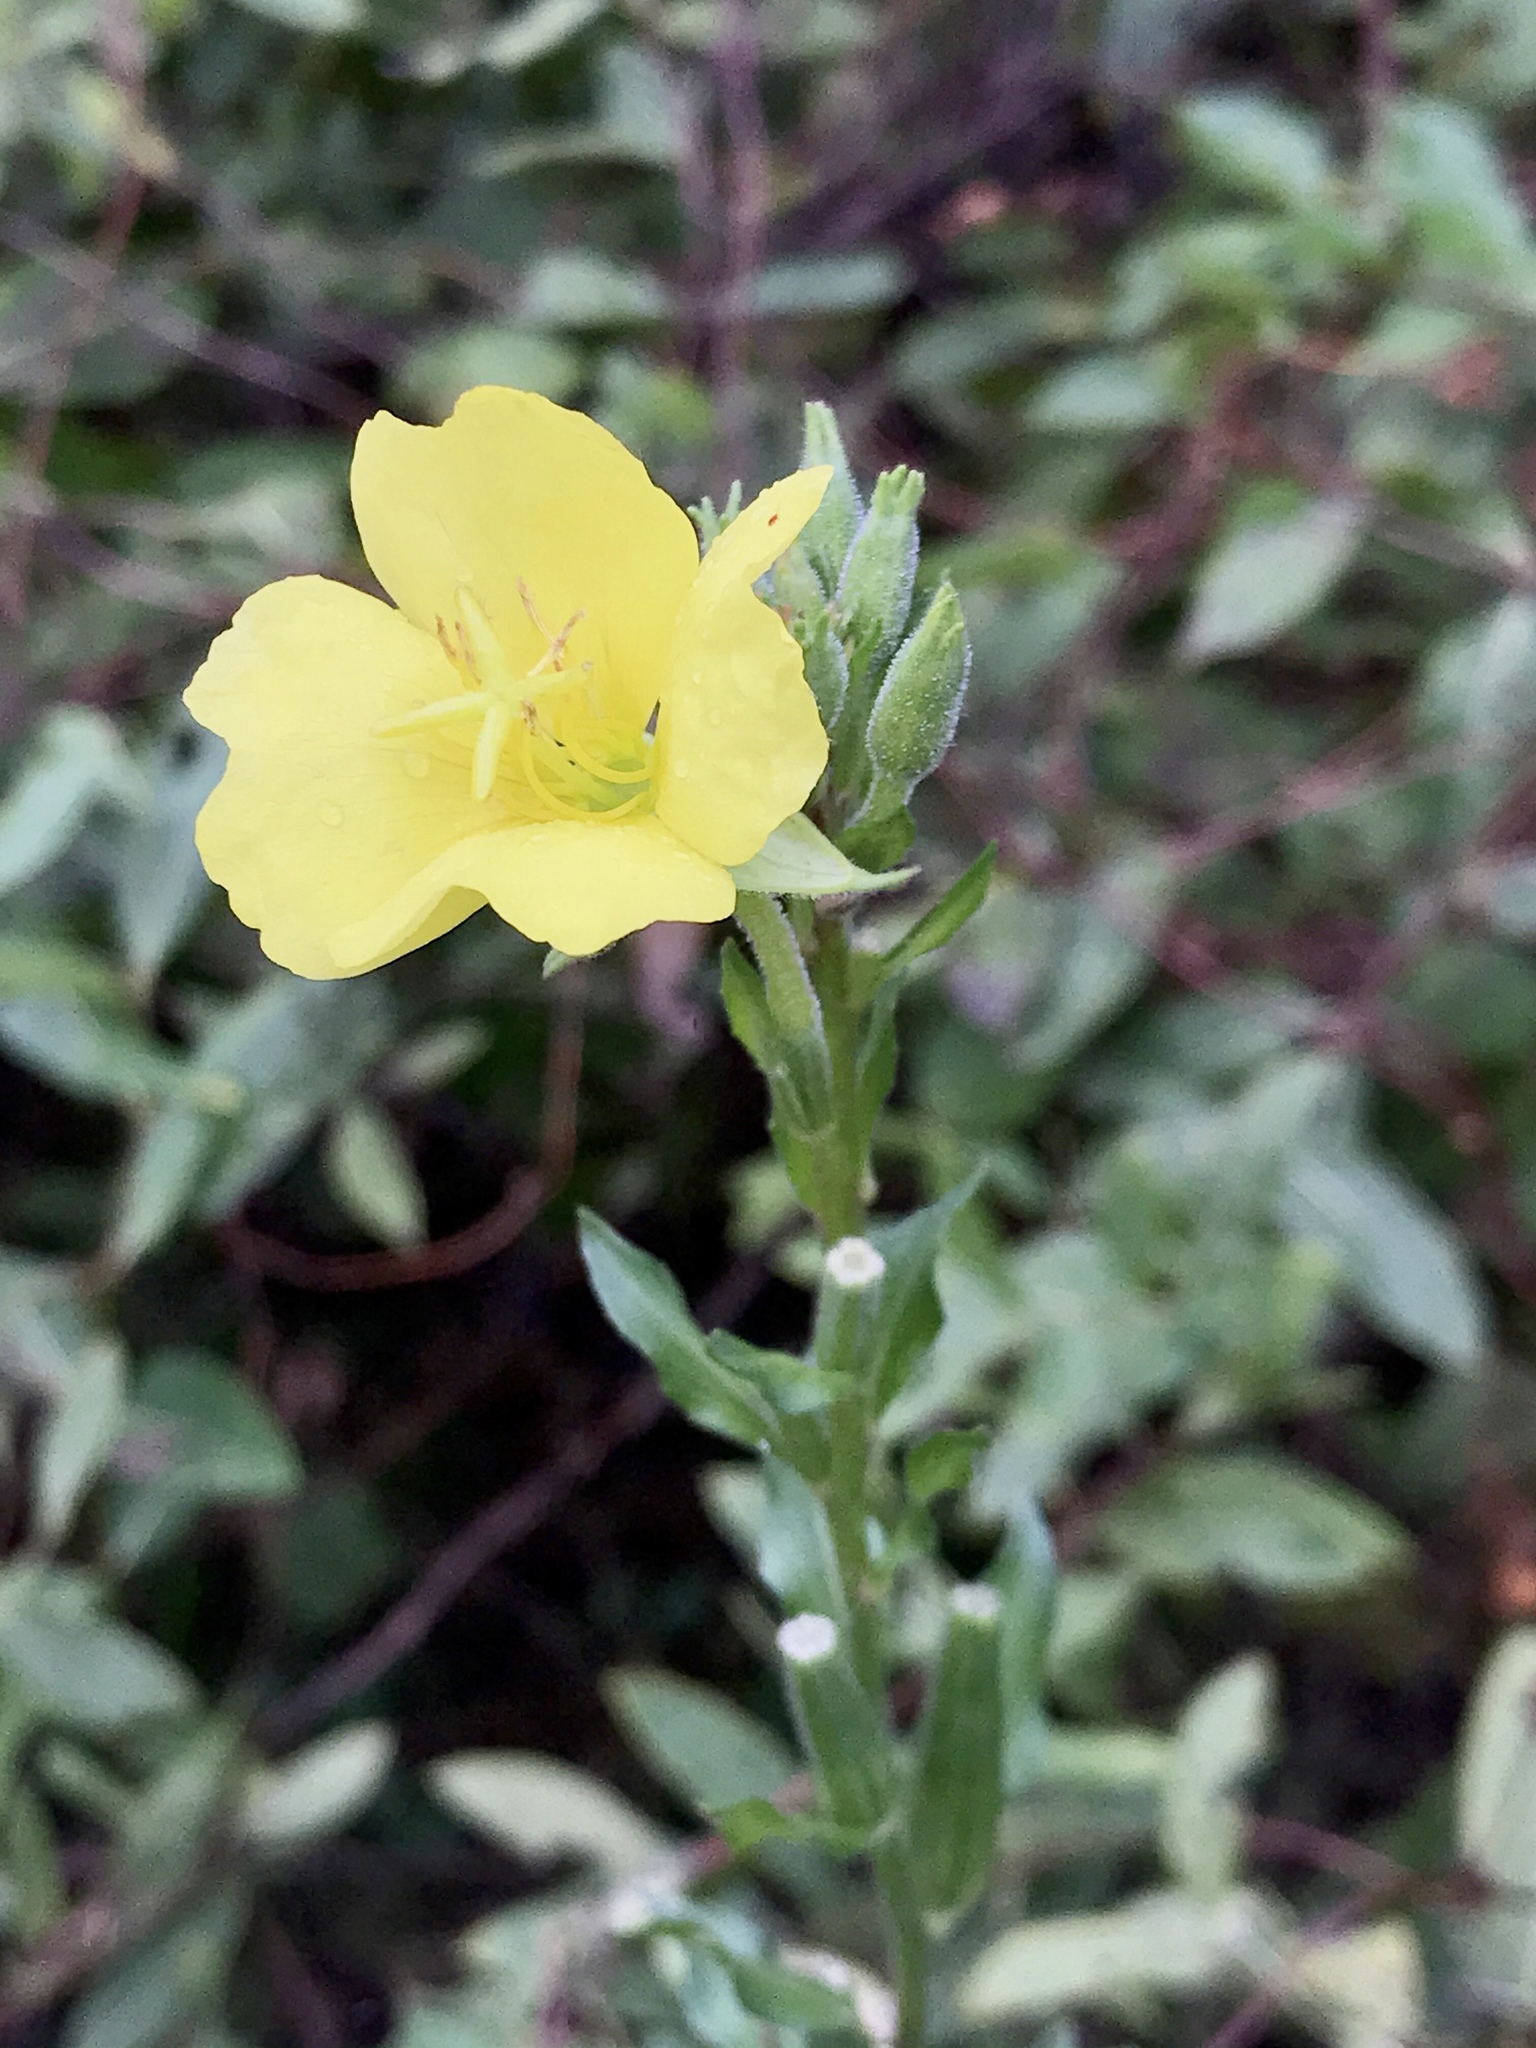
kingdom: Plantae
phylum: Tracheophyta
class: Magnoliopsida
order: Myrtales
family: Onagraceae
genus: Oenothera
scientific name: Oenothera biennis
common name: Common evening-primrose
